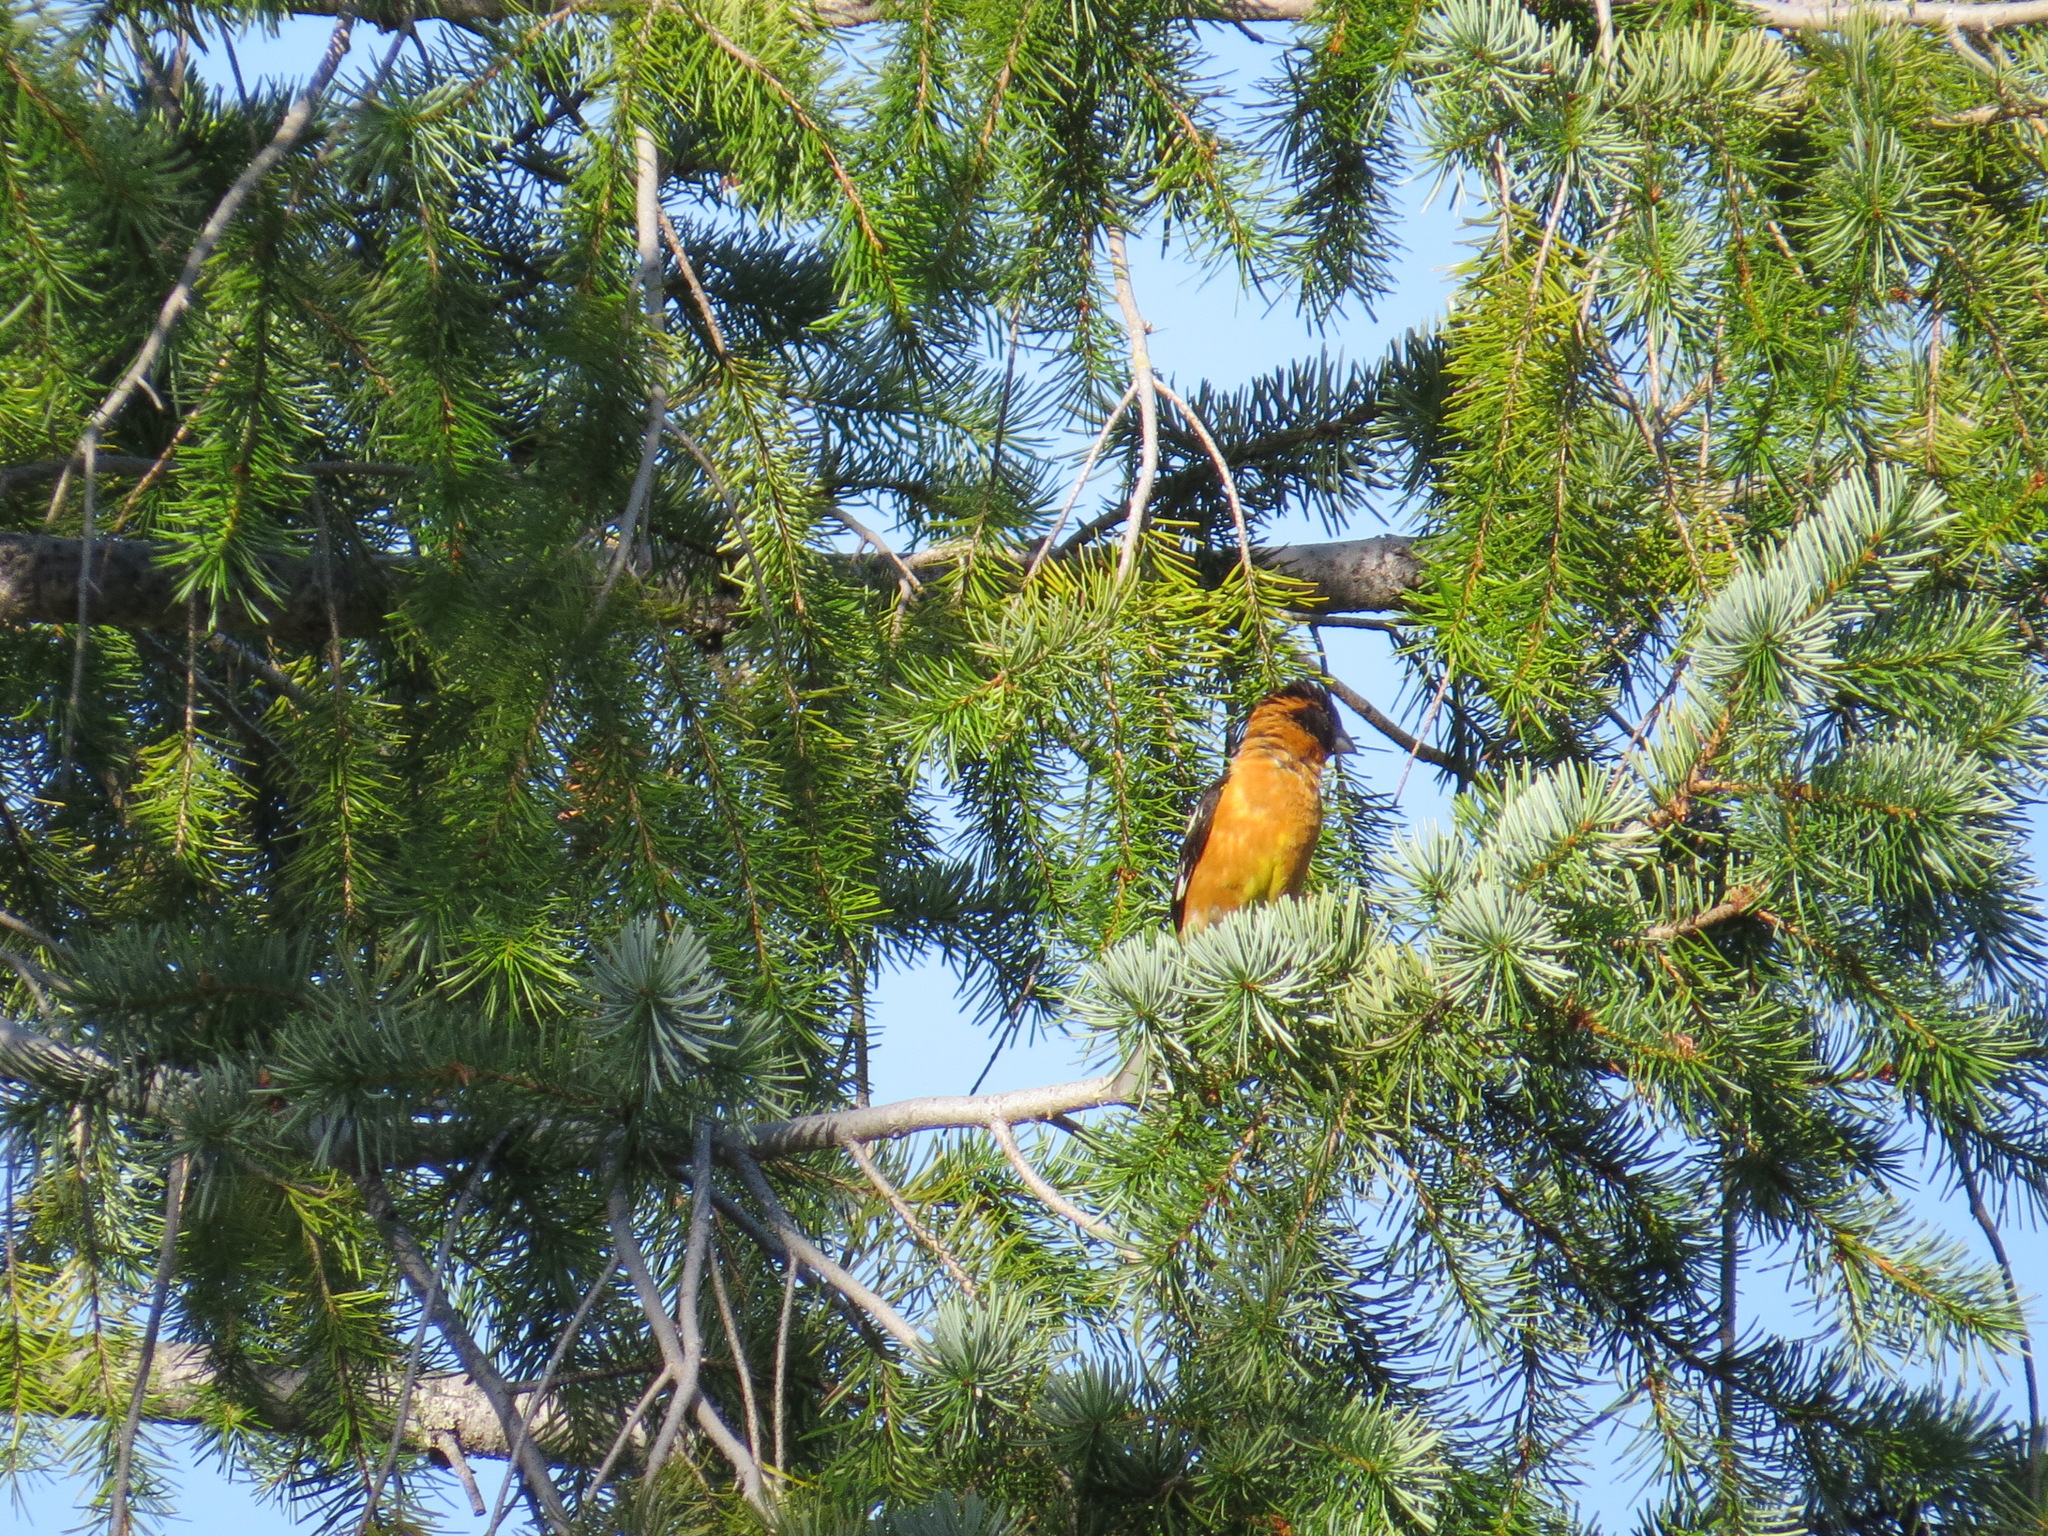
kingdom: Animalia
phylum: Chordata
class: Aves
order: Passeriformes
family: Cardinalidae
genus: Pheucticus
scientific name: Pheucticus melanocephalus
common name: Black-headed grosbeak
